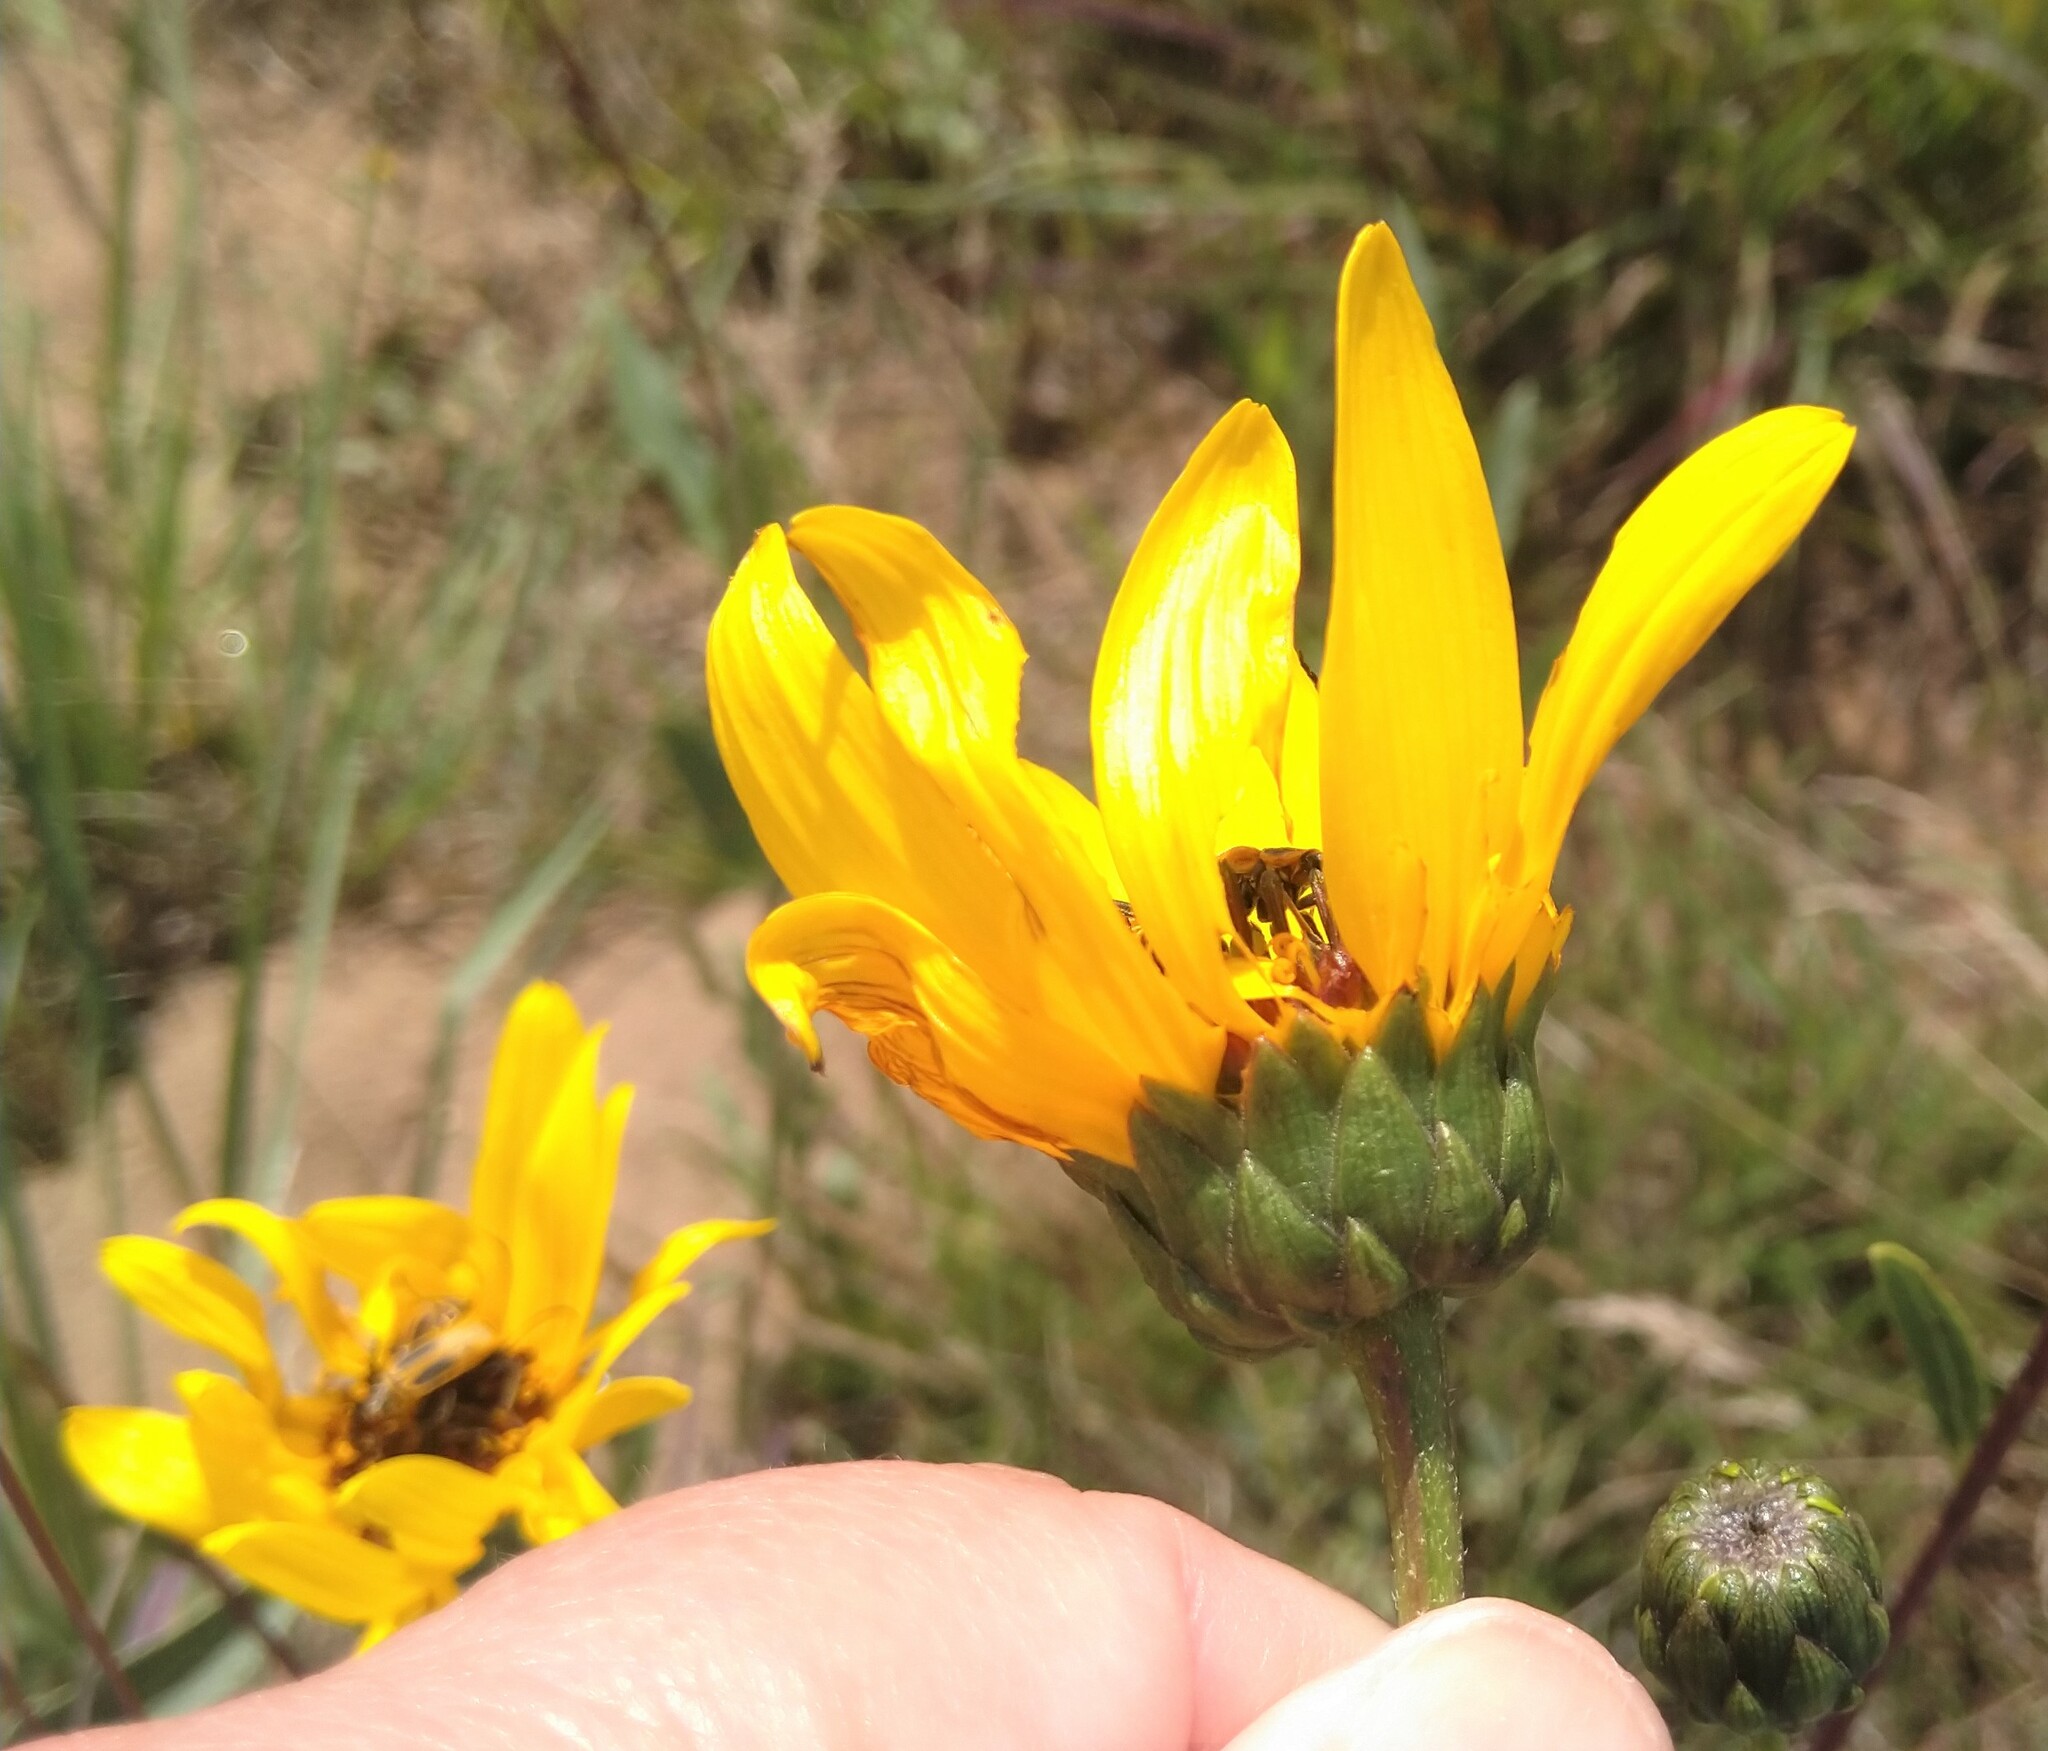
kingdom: Plantae
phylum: Tracheophyta
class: Magnoliopsida
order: Asterales
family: Asteraceae
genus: Helianthus
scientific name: Helianthus pauciflorus
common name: Stiff sunflower
